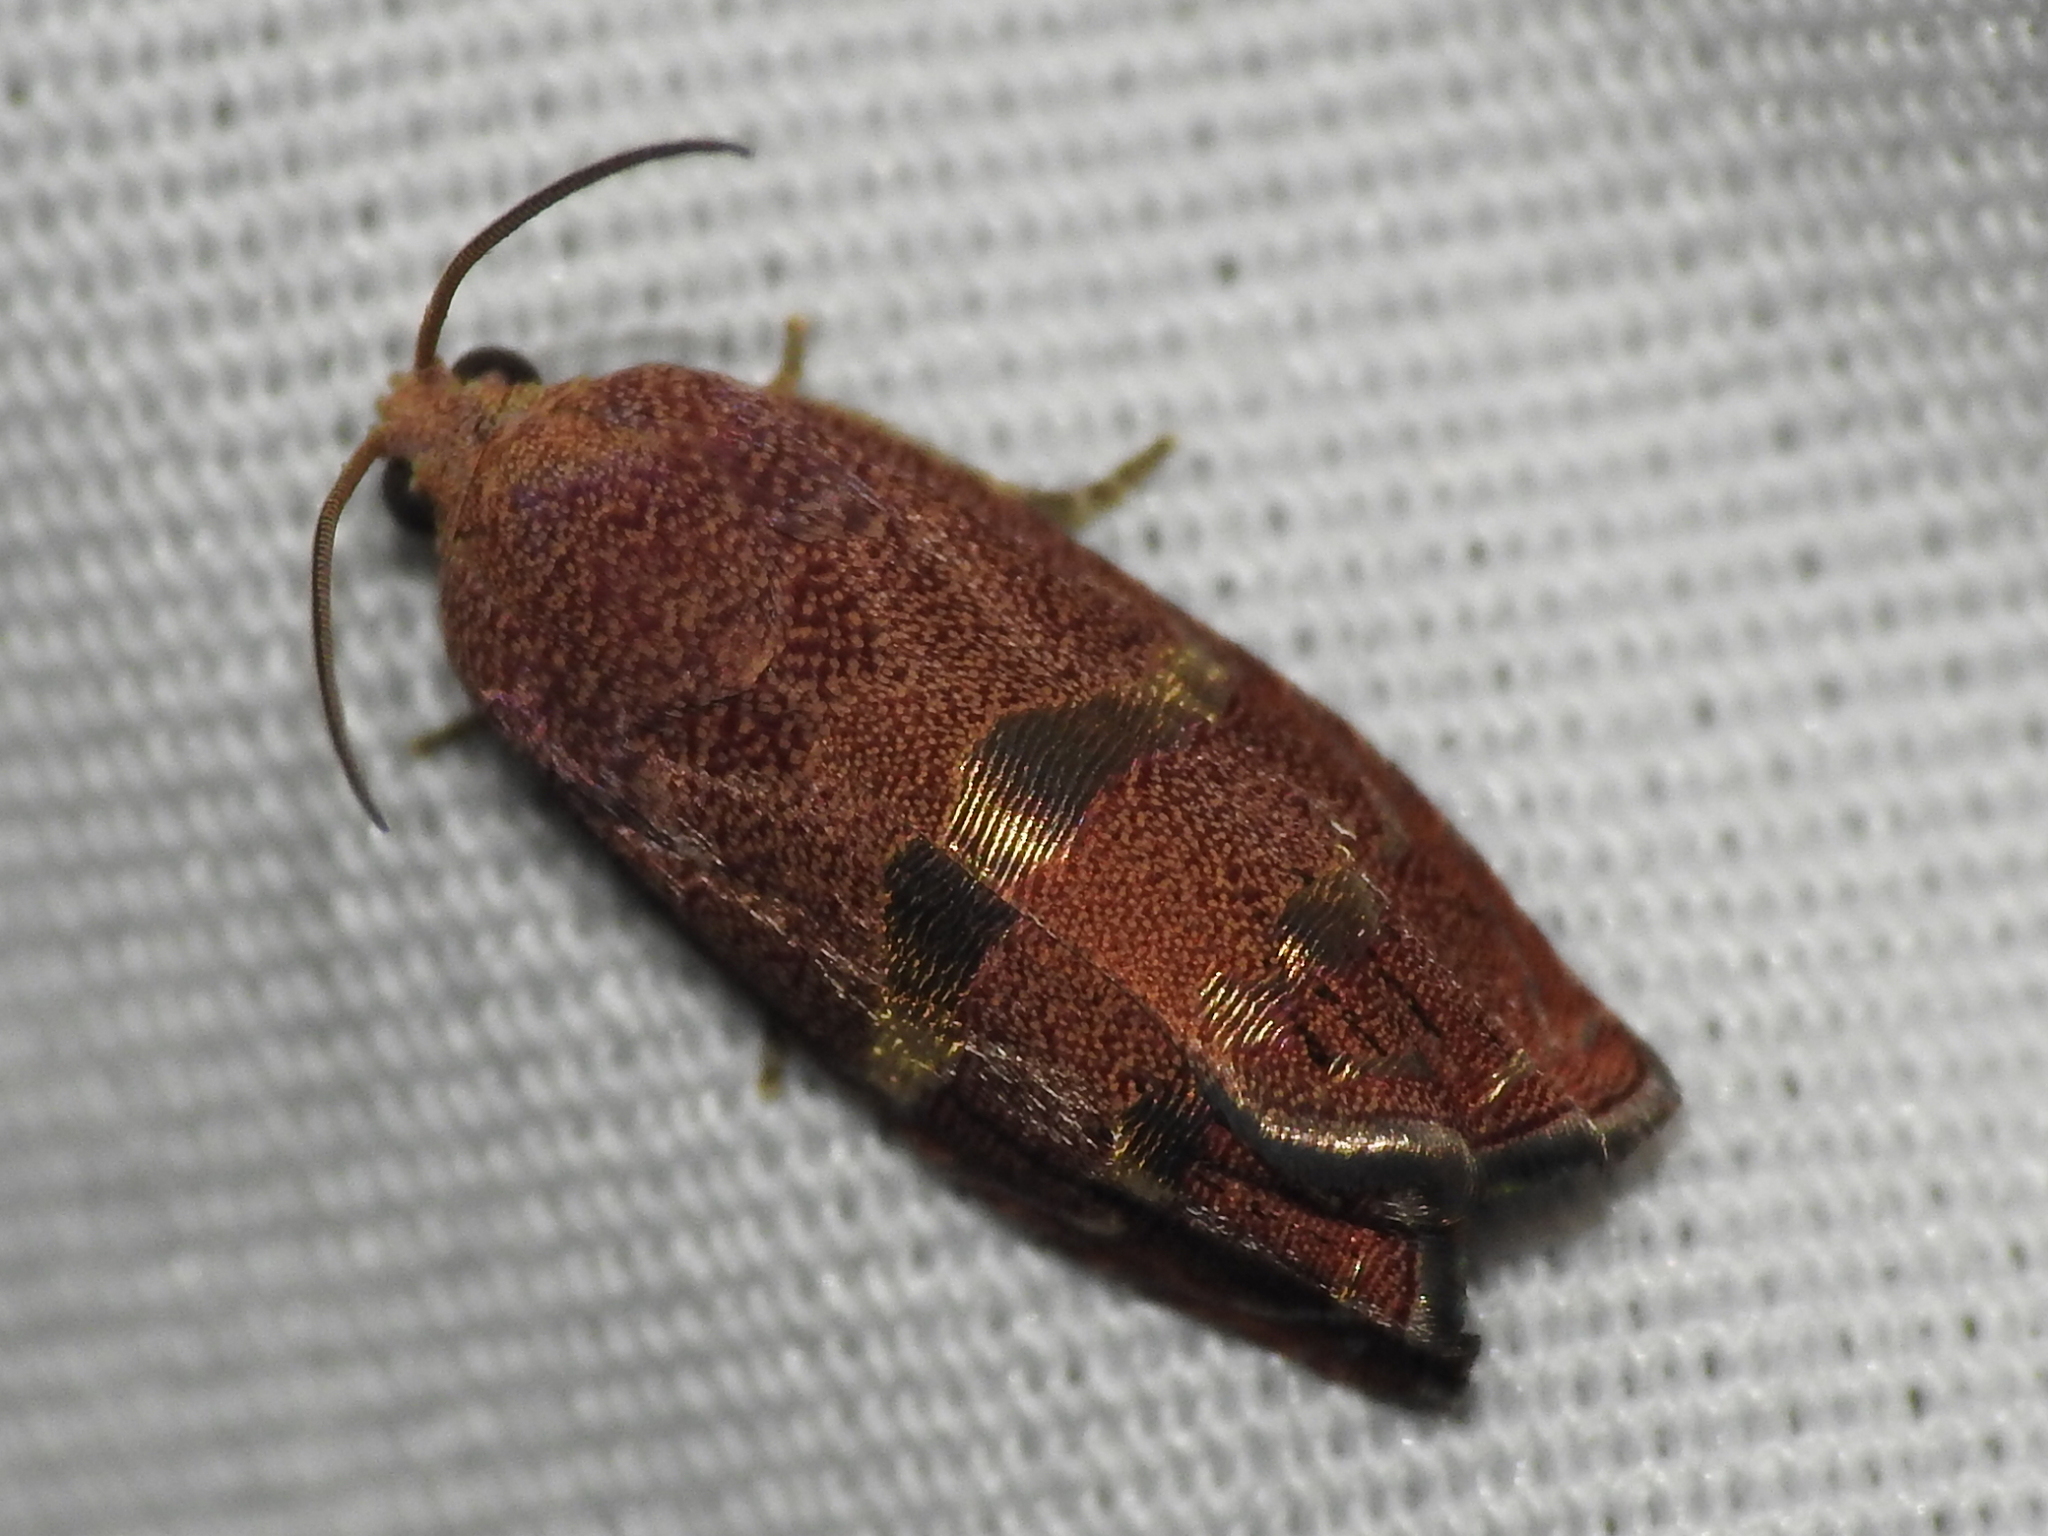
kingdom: Animalia
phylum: Arthropoda
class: Insecta
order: Lepidoptera
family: Tortricidae
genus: Cydia
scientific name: Cydia latiferreana
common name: Filbertworm moth
